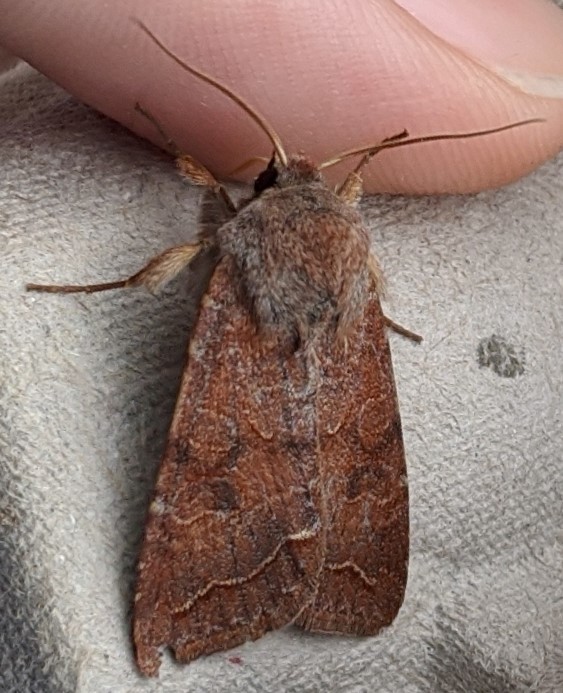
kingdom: Animalia
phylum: Arthropoda
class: Insecta
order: Lepidoptera
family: Noctuidae
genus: Orthosia
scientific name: Orthosia revicta
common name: Rusty whitesided caterpillar
